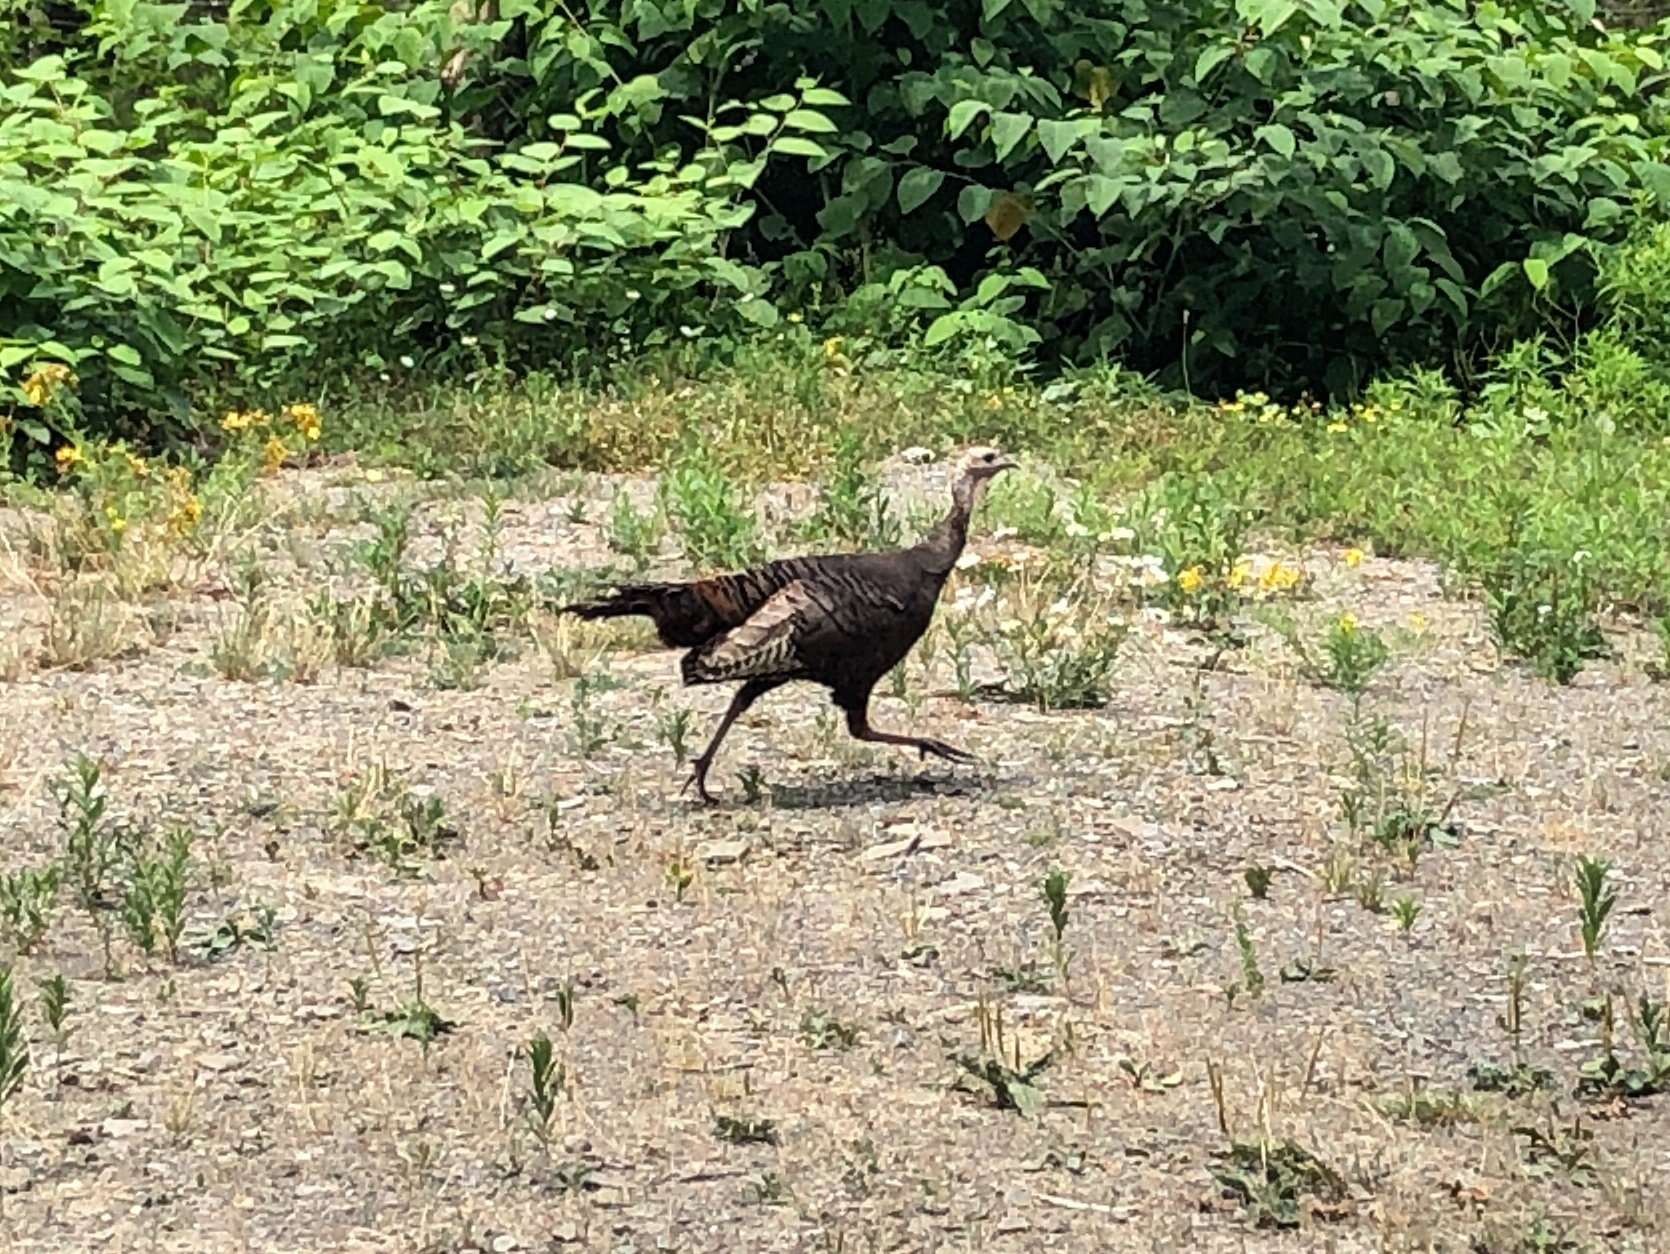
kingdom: Animalia
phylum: Chordata
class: Aves
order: Galliformes
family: Phasianidae
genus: Meleagris
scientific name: Meleagris gallopavo
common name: Wild turkey
